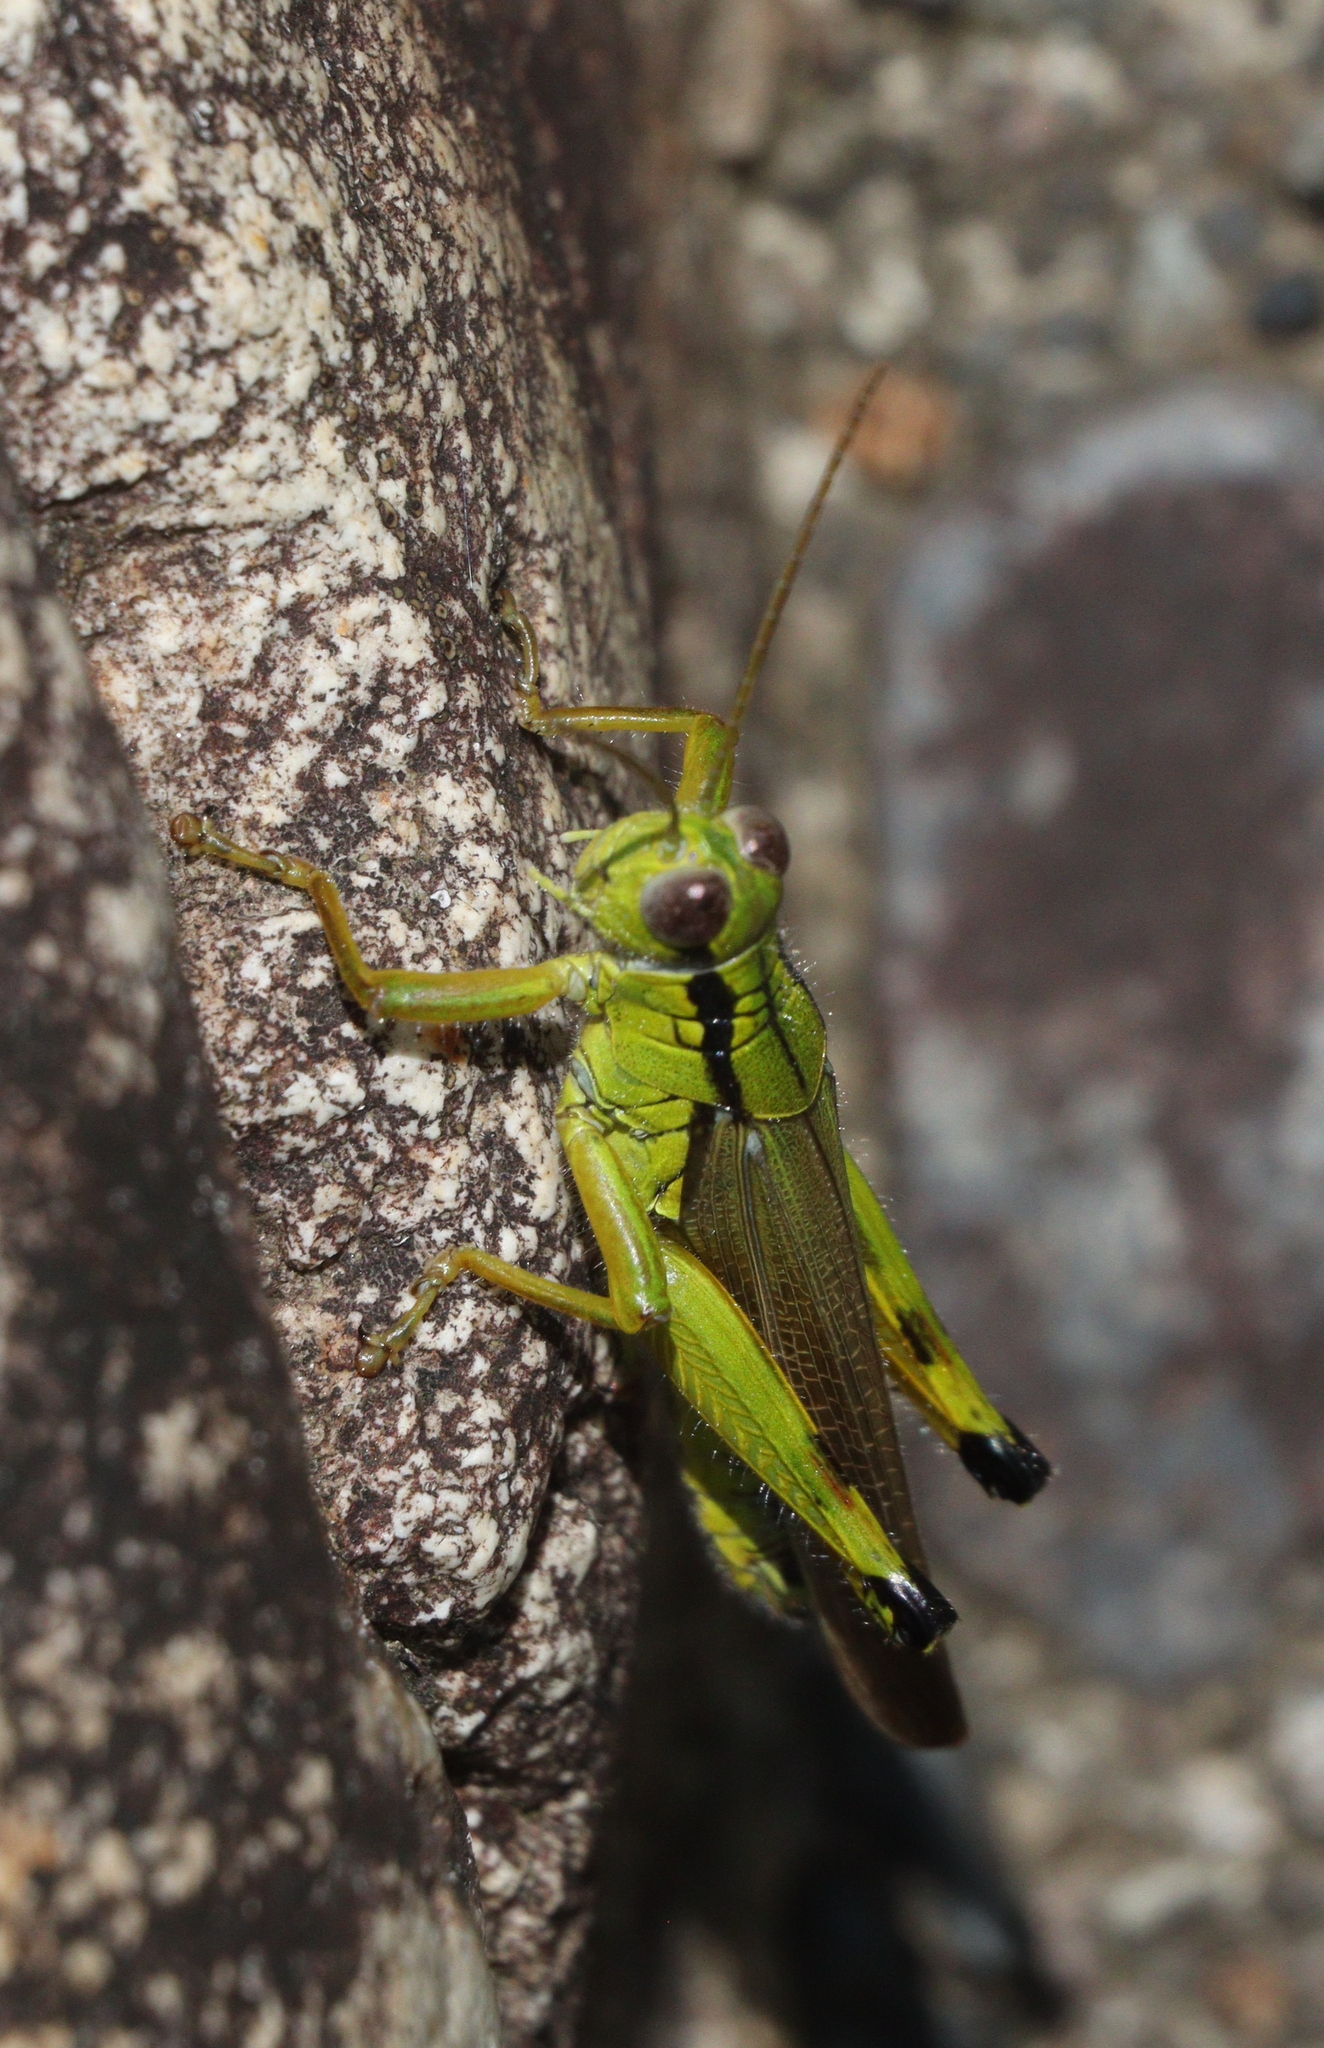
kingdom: Animalia
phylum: Arthropoda
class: Insecta
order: Orthoptera
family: Acrididae
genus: Confusacris
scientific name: Confusacris longipennis
